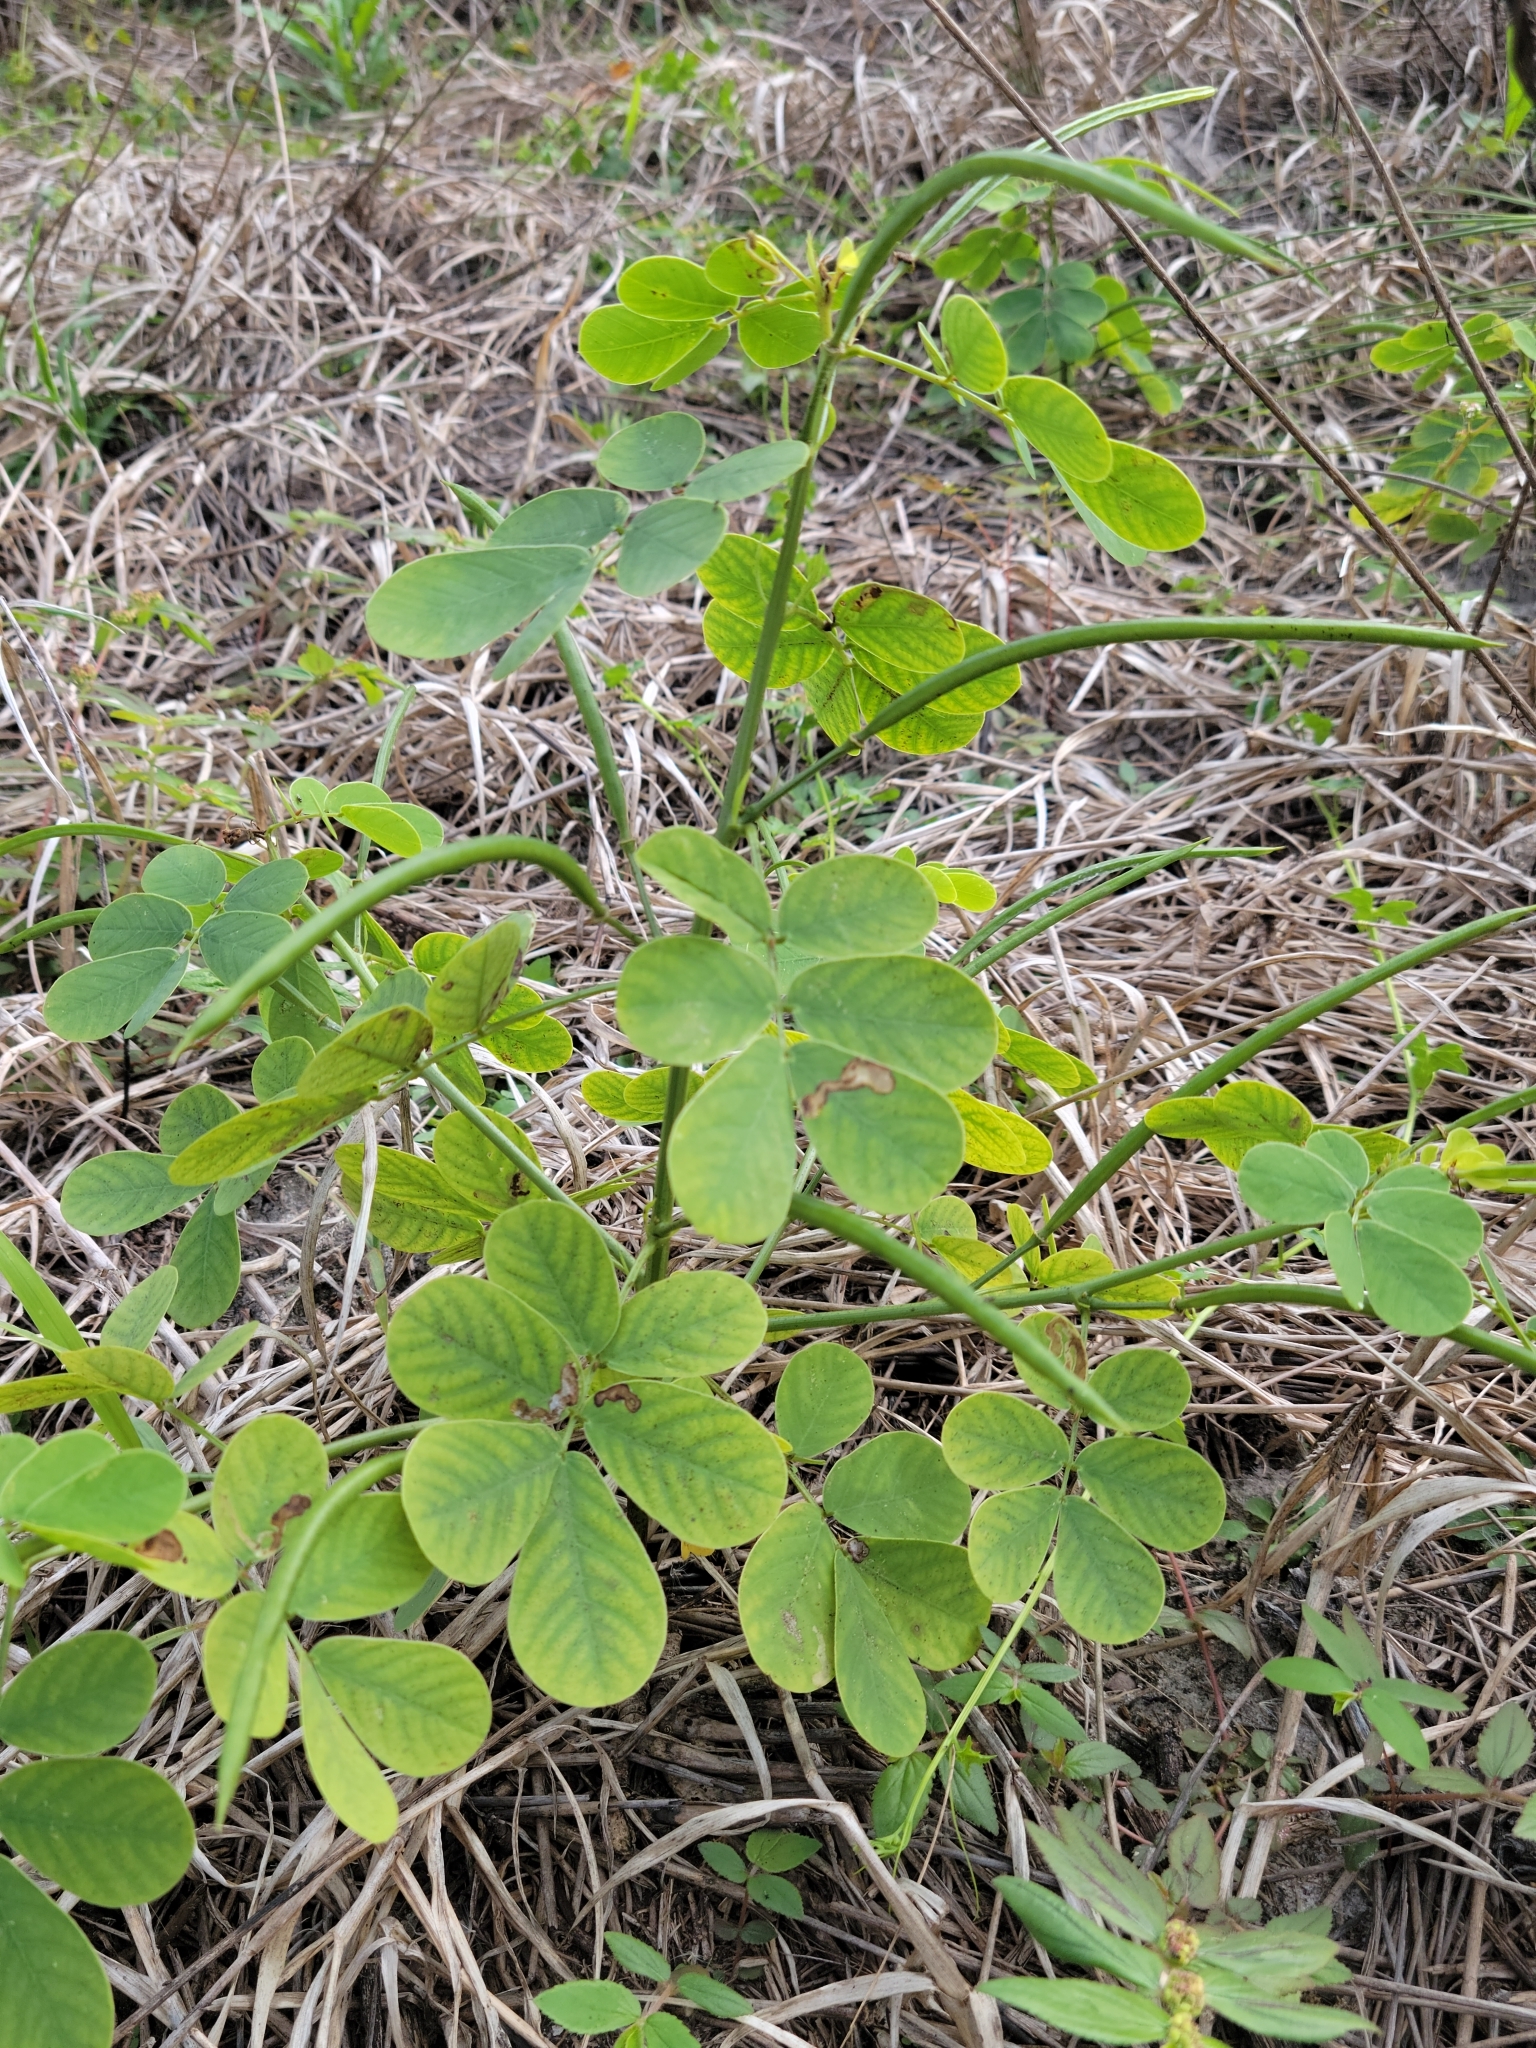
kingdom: Plantae
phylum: Tracheophyta
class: Magnoliopsida
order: Fabales
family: Fabaceae
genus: Senna
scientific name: Senna obtusifolia
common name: Java-bean
